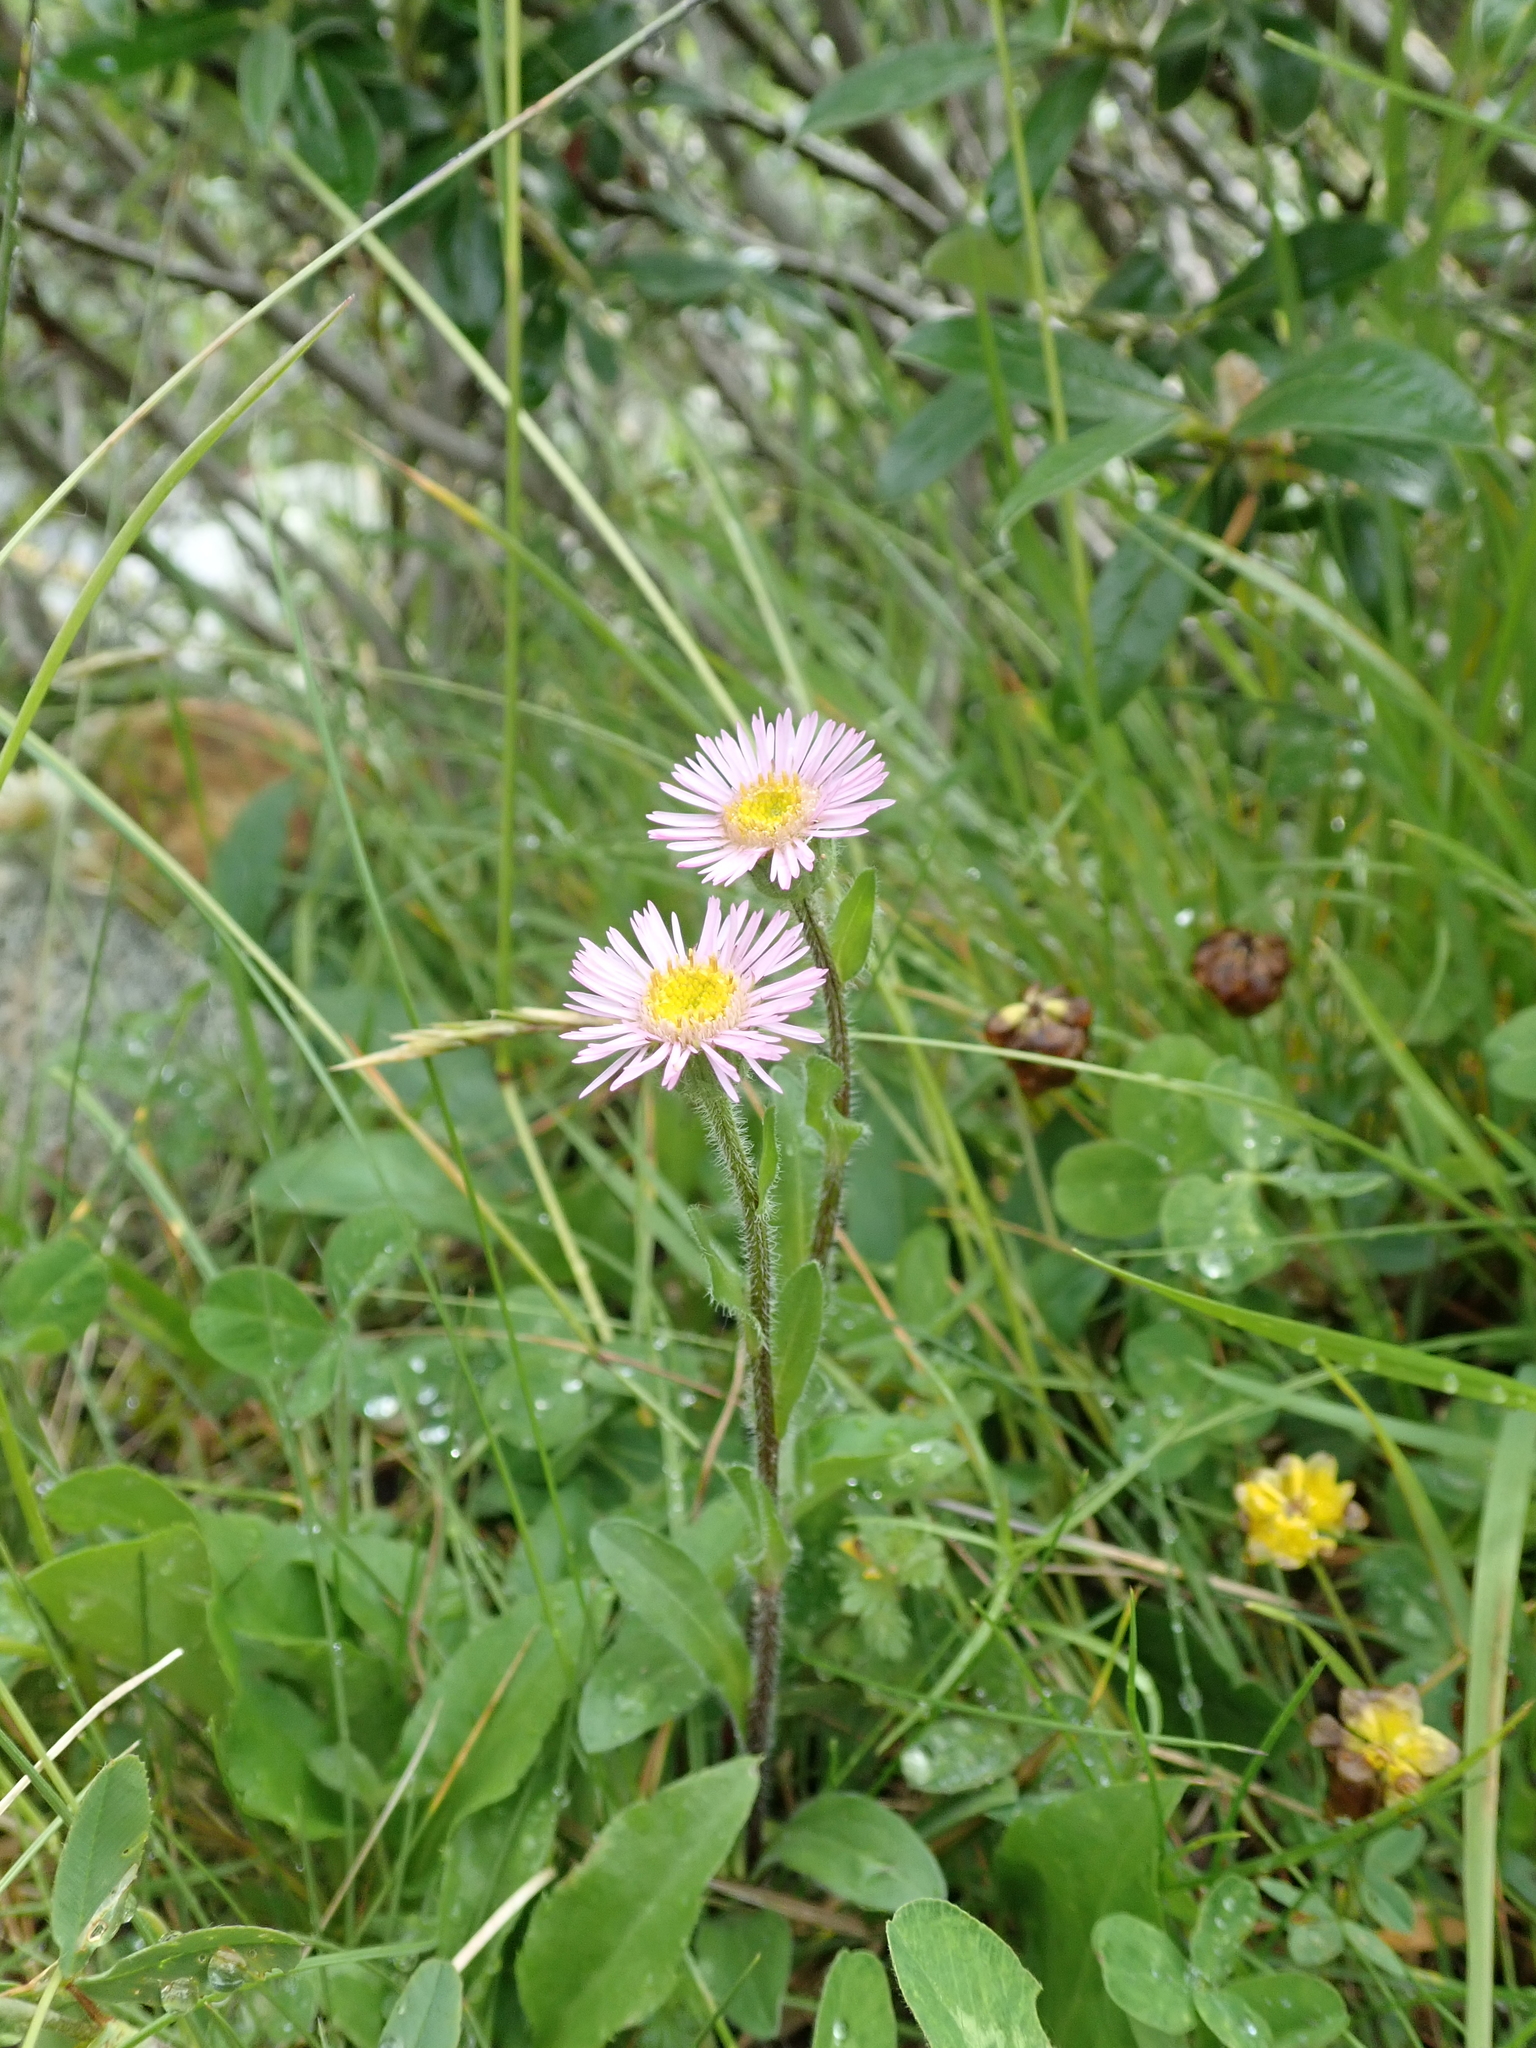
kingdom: Plantae
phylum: Tracheophyta
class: Magnoliopsida
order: Asterales
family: Asteraceae
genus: Erigeron
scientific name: Erigeron alpinus
